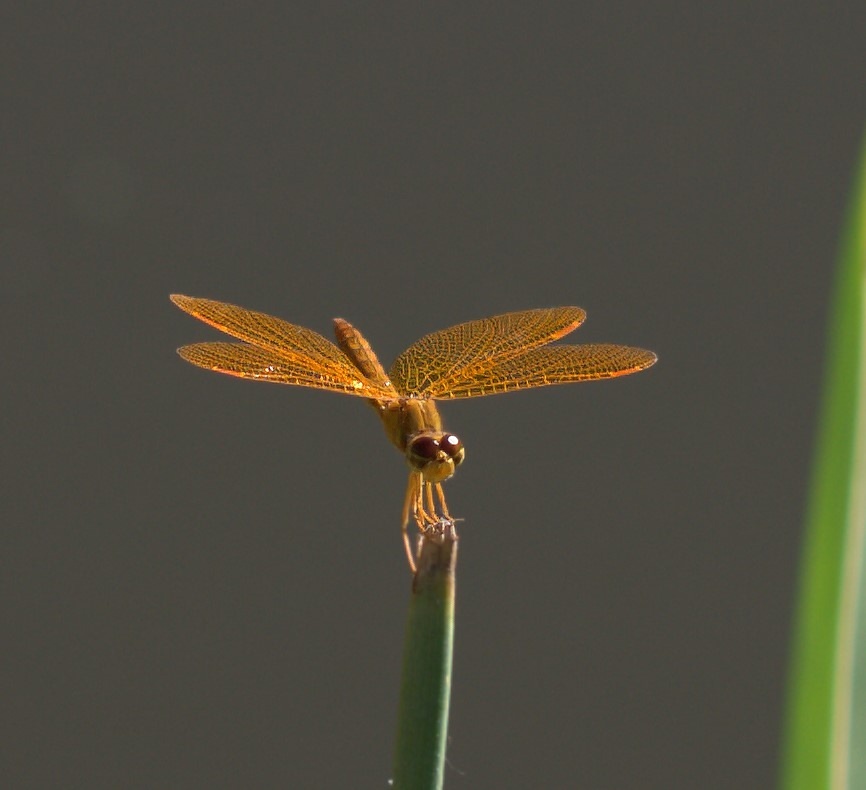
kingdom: Animalia
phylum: Arthropoda
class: Insecta
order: Odonata
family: Libellulidae
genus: Perithemis
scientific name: Perithemis intensa
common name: Mexican amberwing
